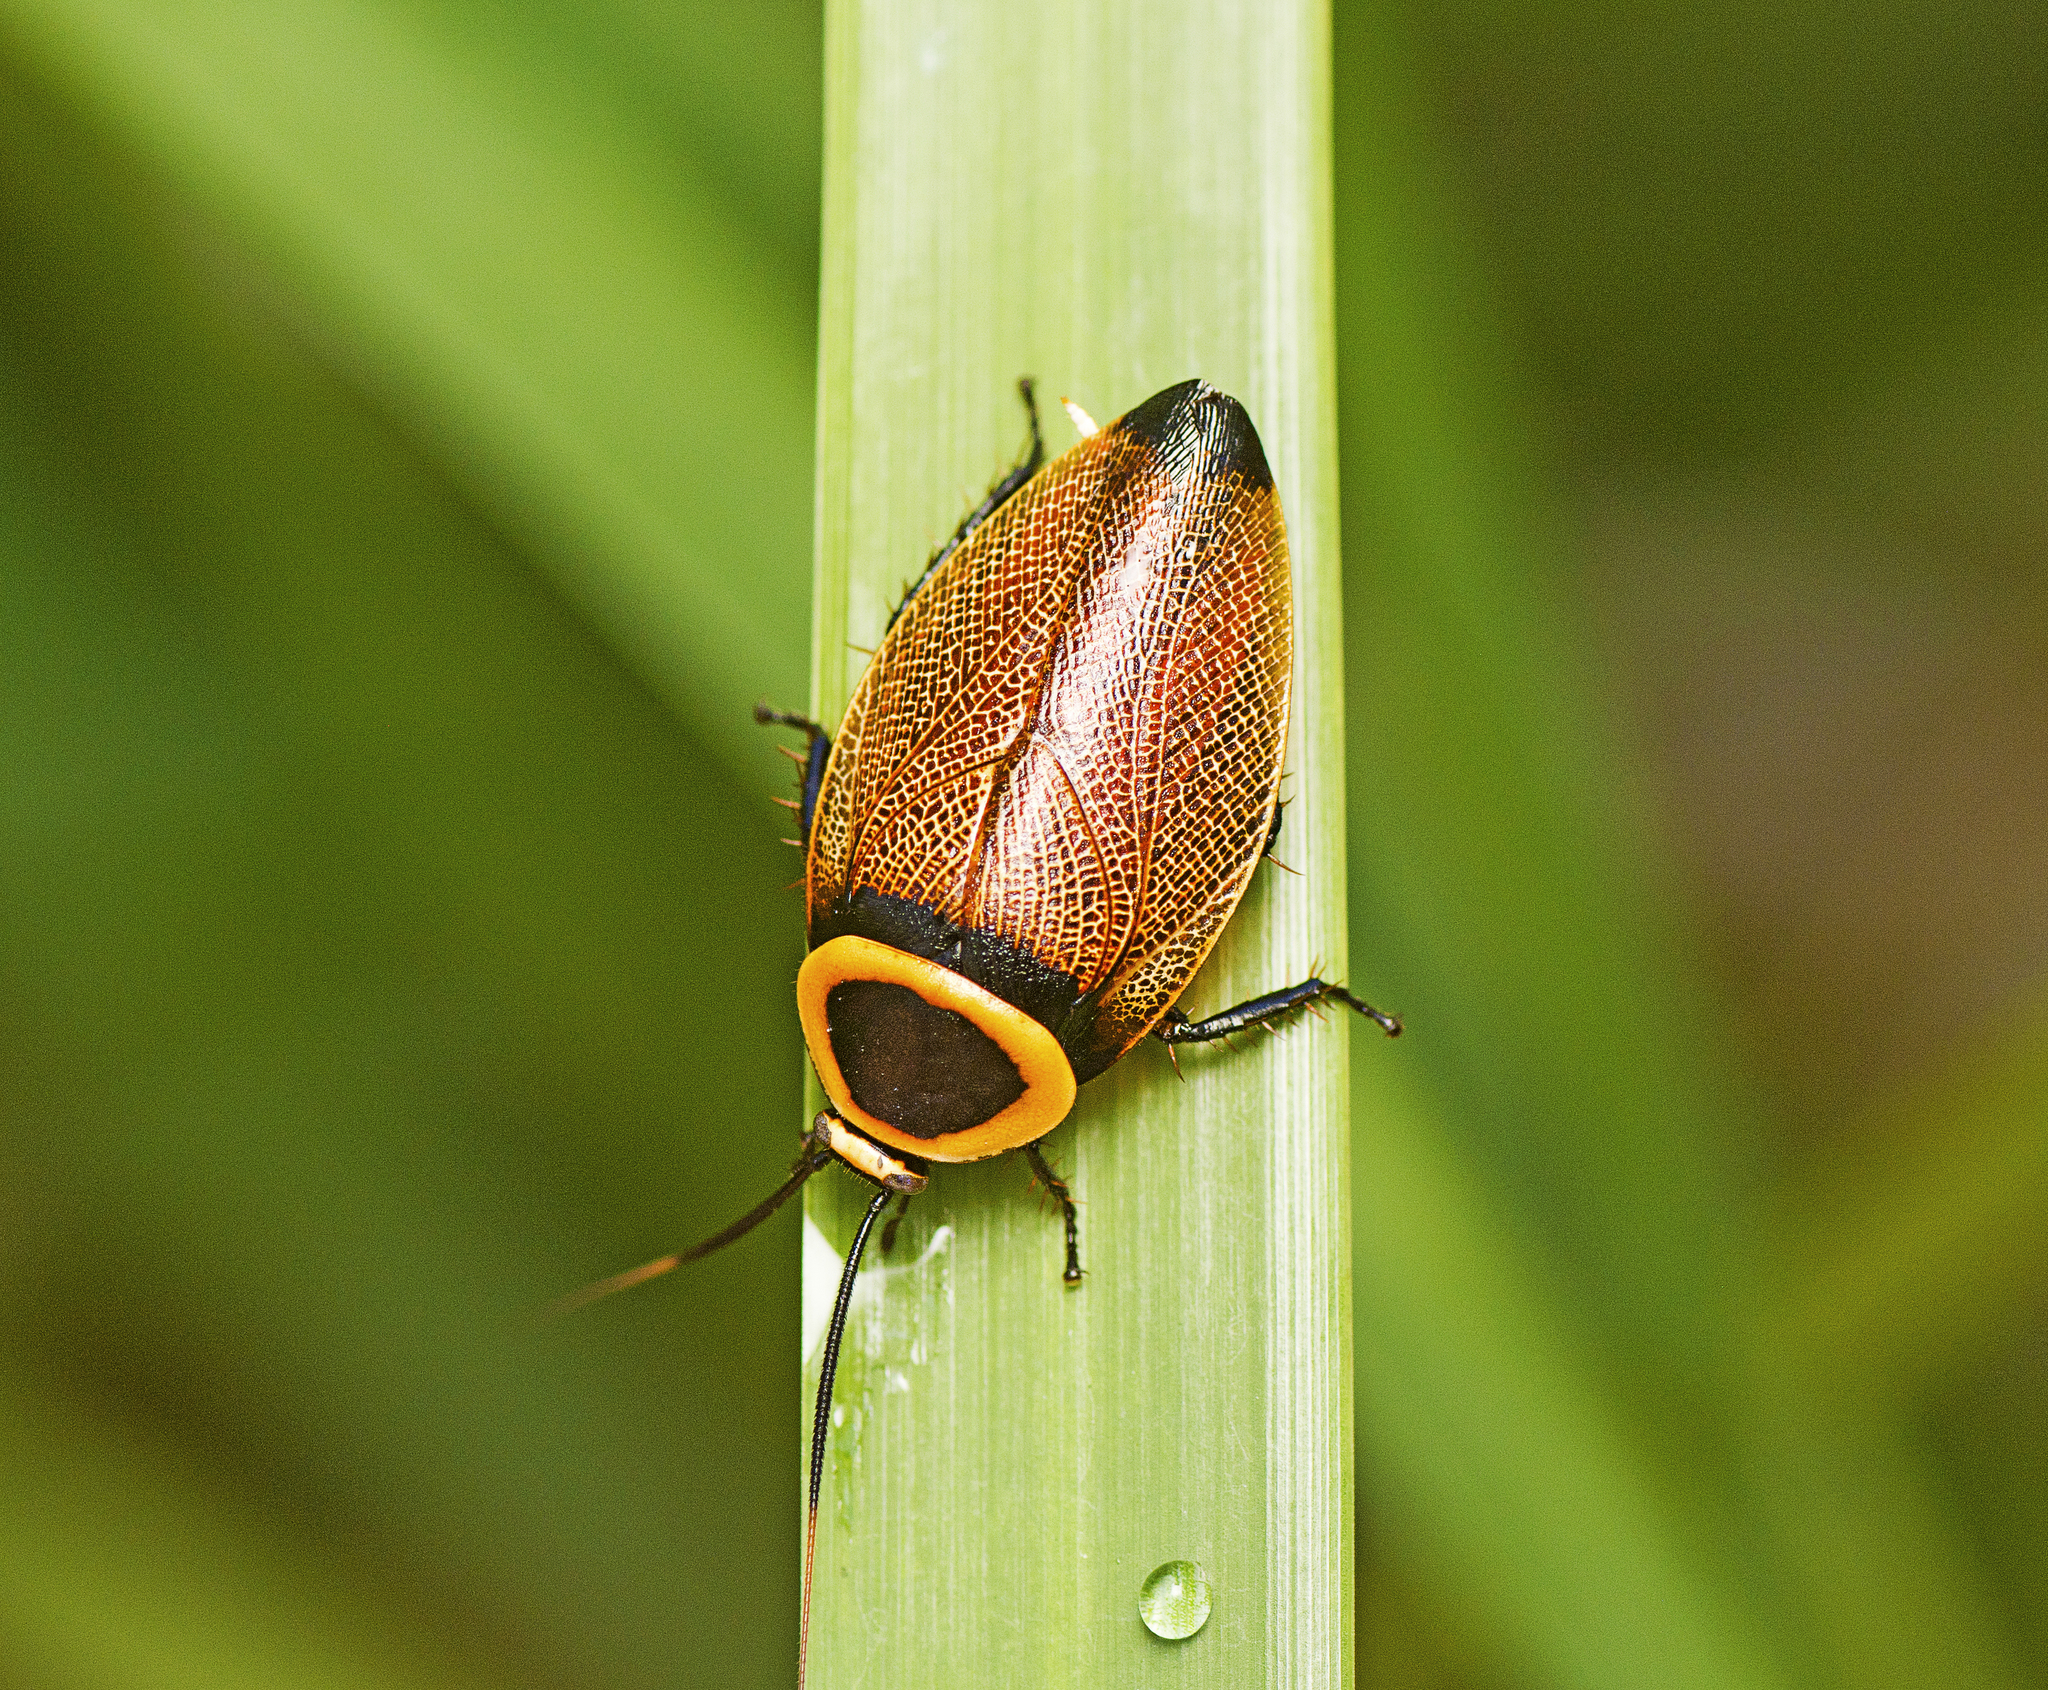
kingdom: Animalia
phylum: Arthropoda
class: Insecta
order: Blattodea
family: Ectobiidae
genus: Ellipsidion
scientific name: Ellipsidion australe
